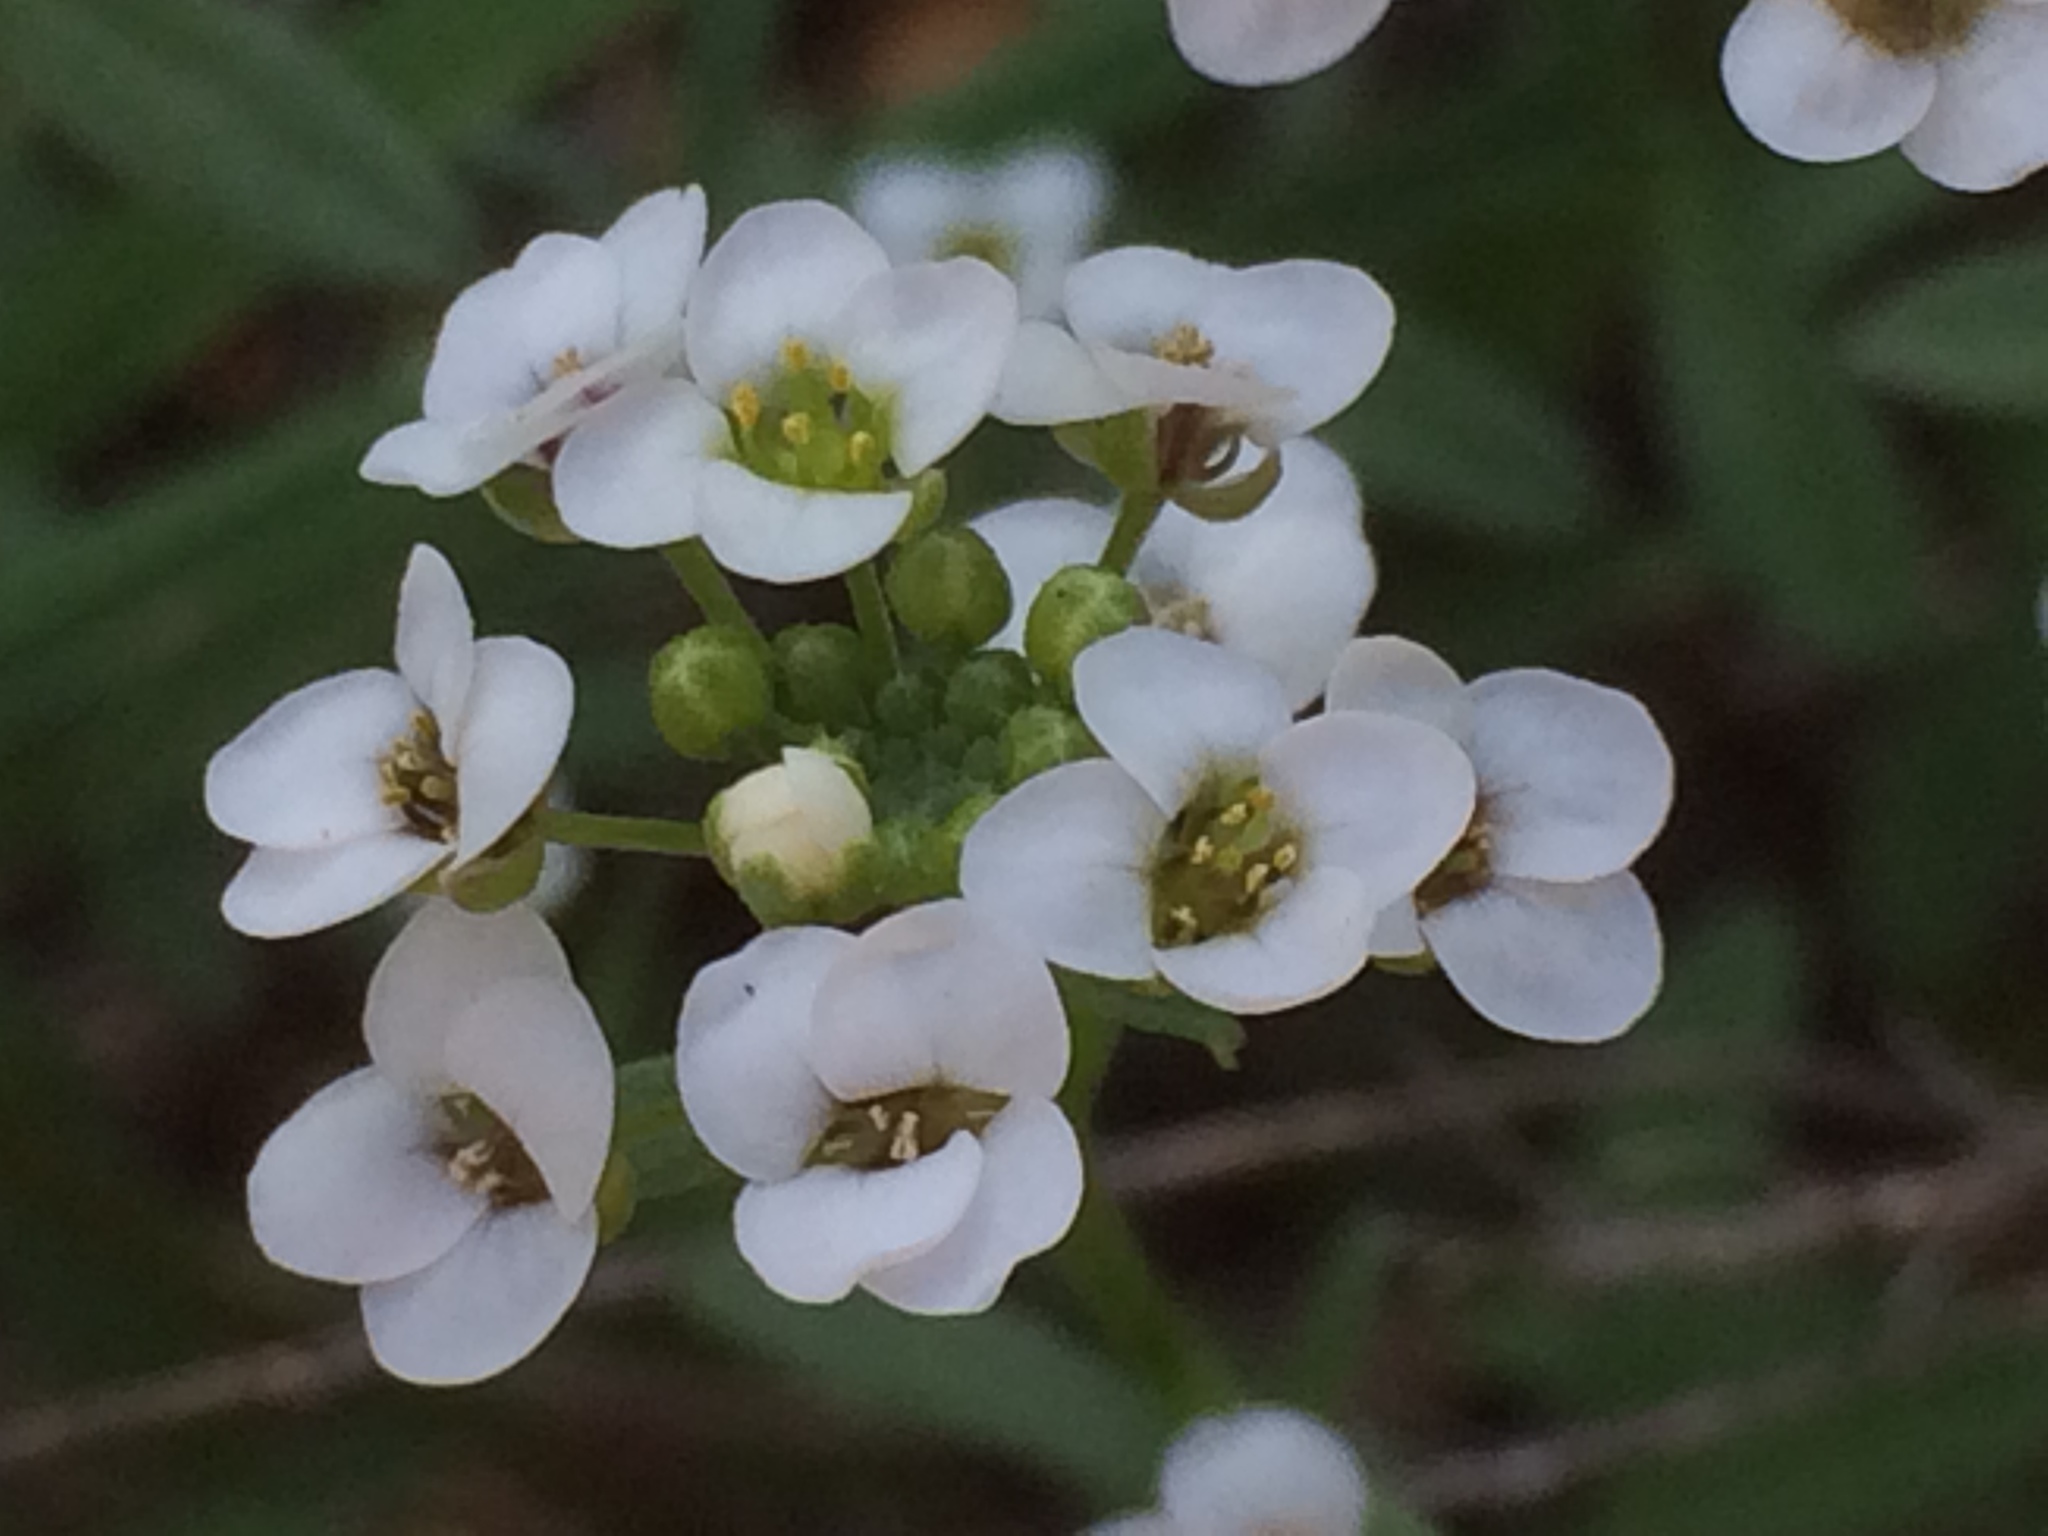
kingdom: Plantae
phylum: Tracheophyta
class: Magnoliopsida
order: Brassicales
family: Brassicaceae
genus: Lobularia
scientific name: Lobularia maritima
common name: Sweet alison
